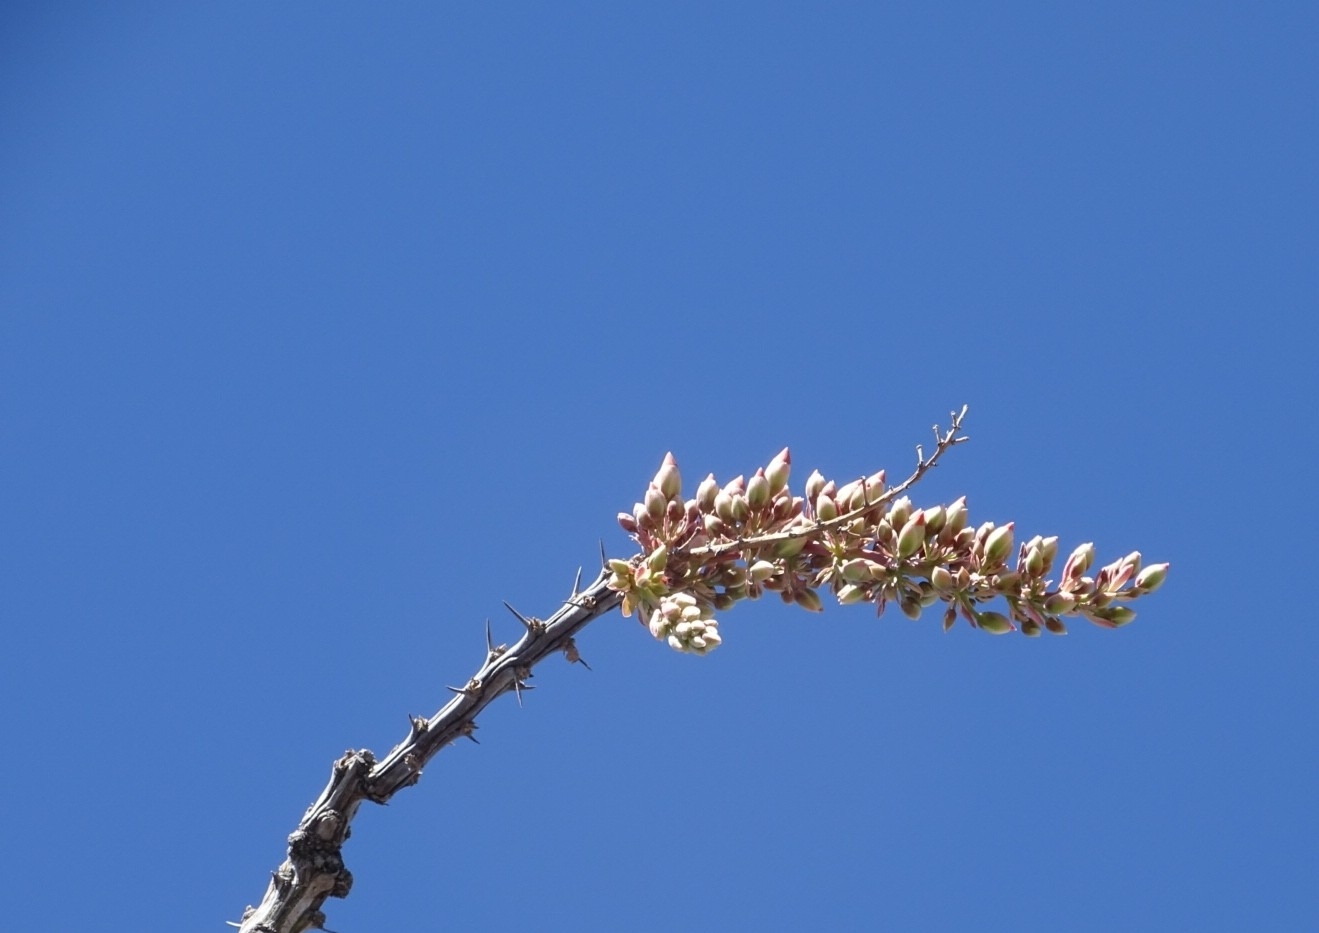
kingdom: Plantae
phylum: Tracheophyta
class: Magnoliopsida
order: Ericales
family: Fouquieriaceae
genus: Fouquieria
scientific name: Fouquieria splendens
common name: Vine-cactus
